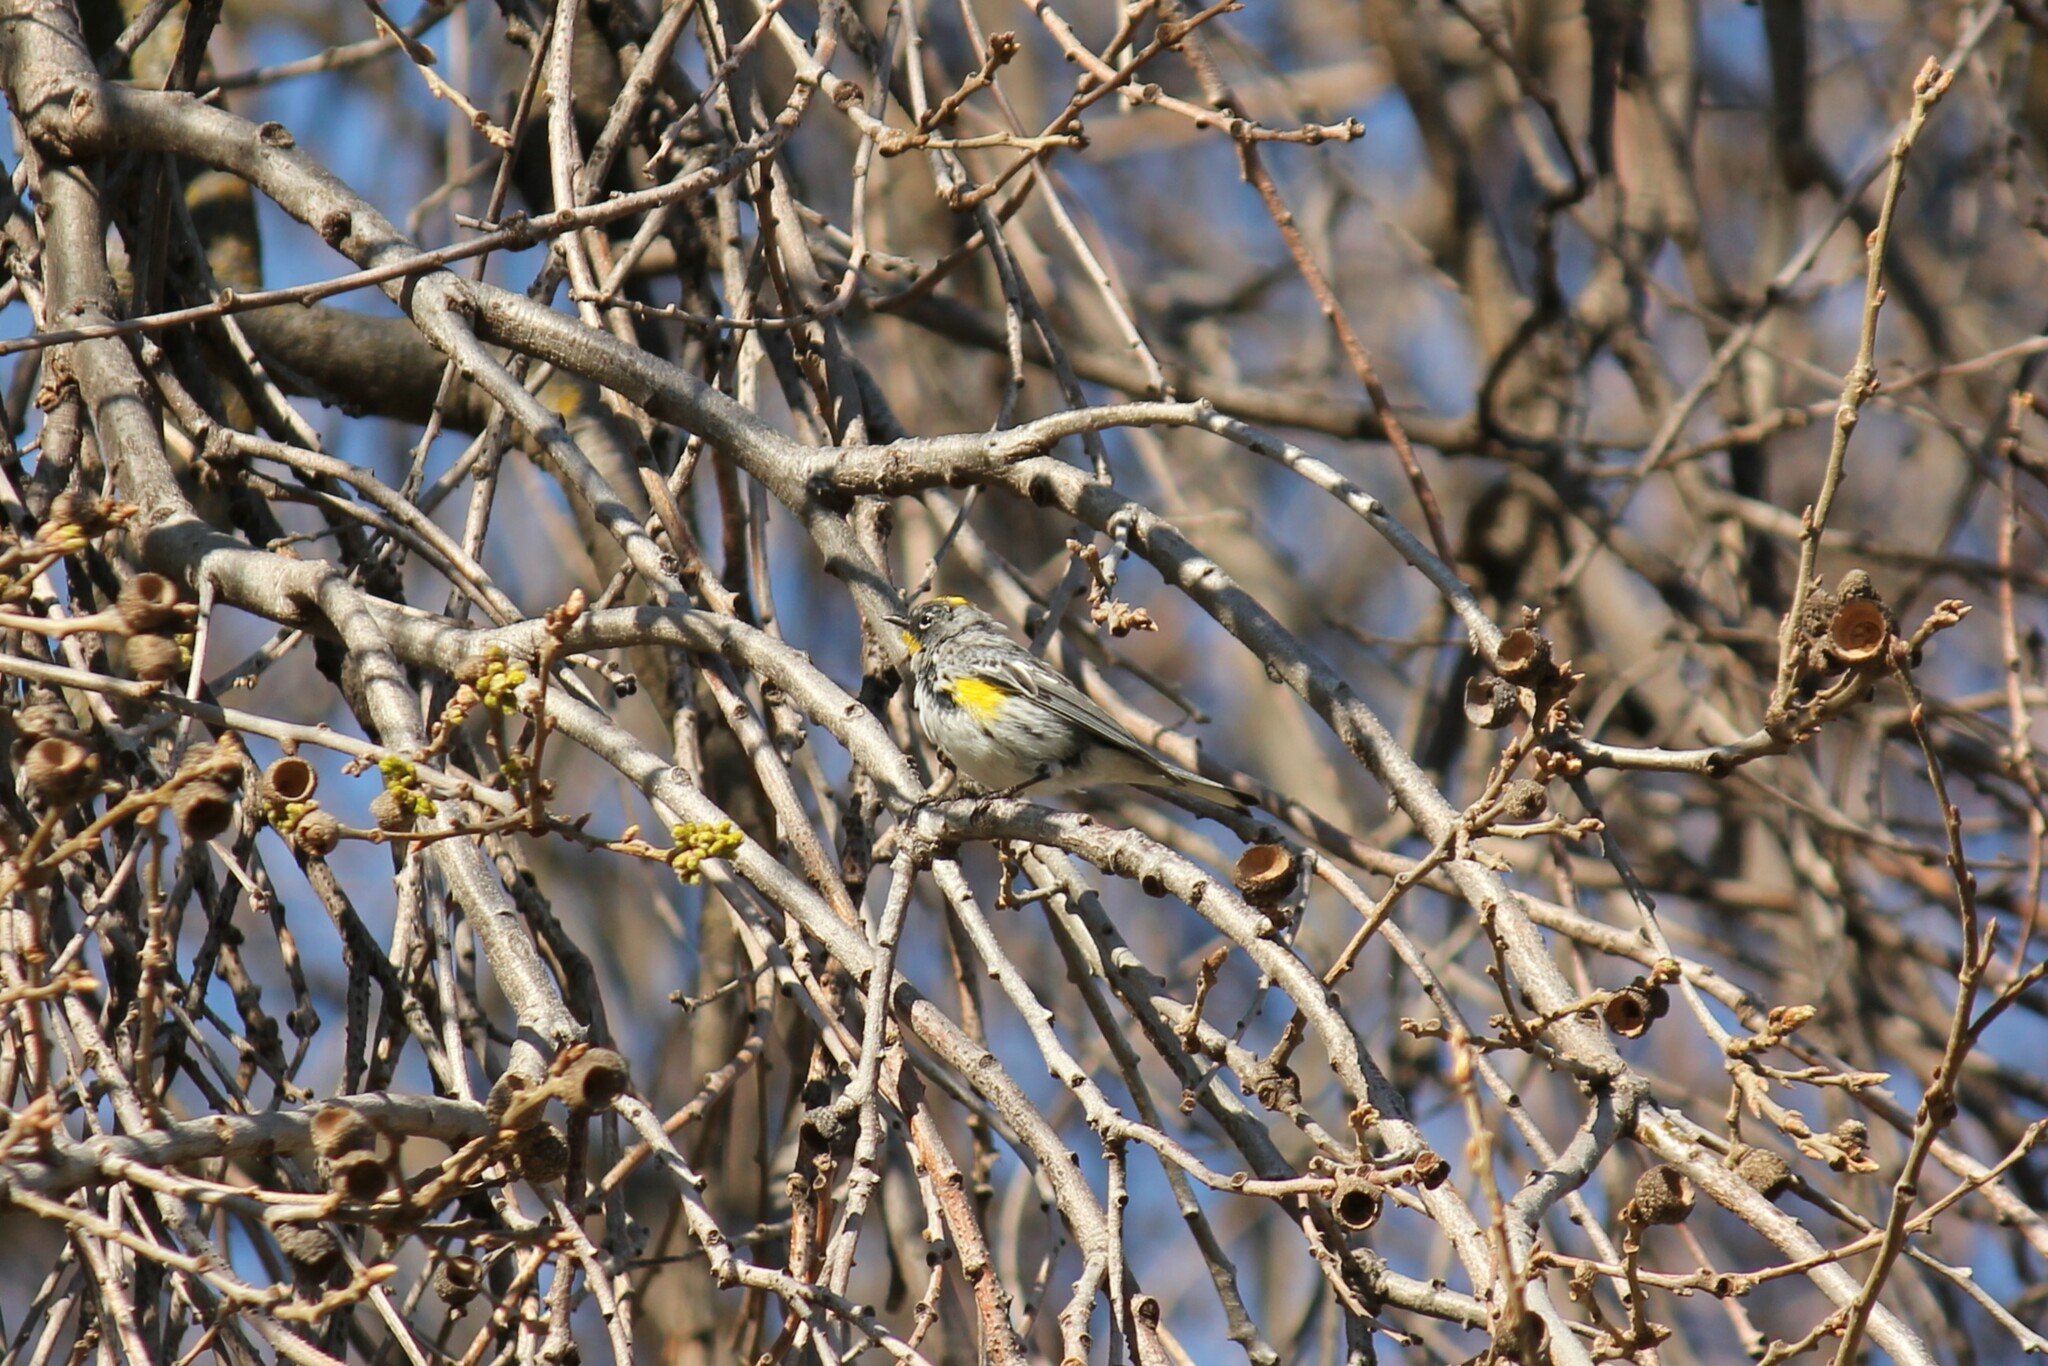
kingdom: Animalia
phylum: Chordata
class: Aves
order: Passeriformes
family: Parulidae
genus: Setophaga
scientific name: Setophaga coronata
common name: Myrtle warbler
